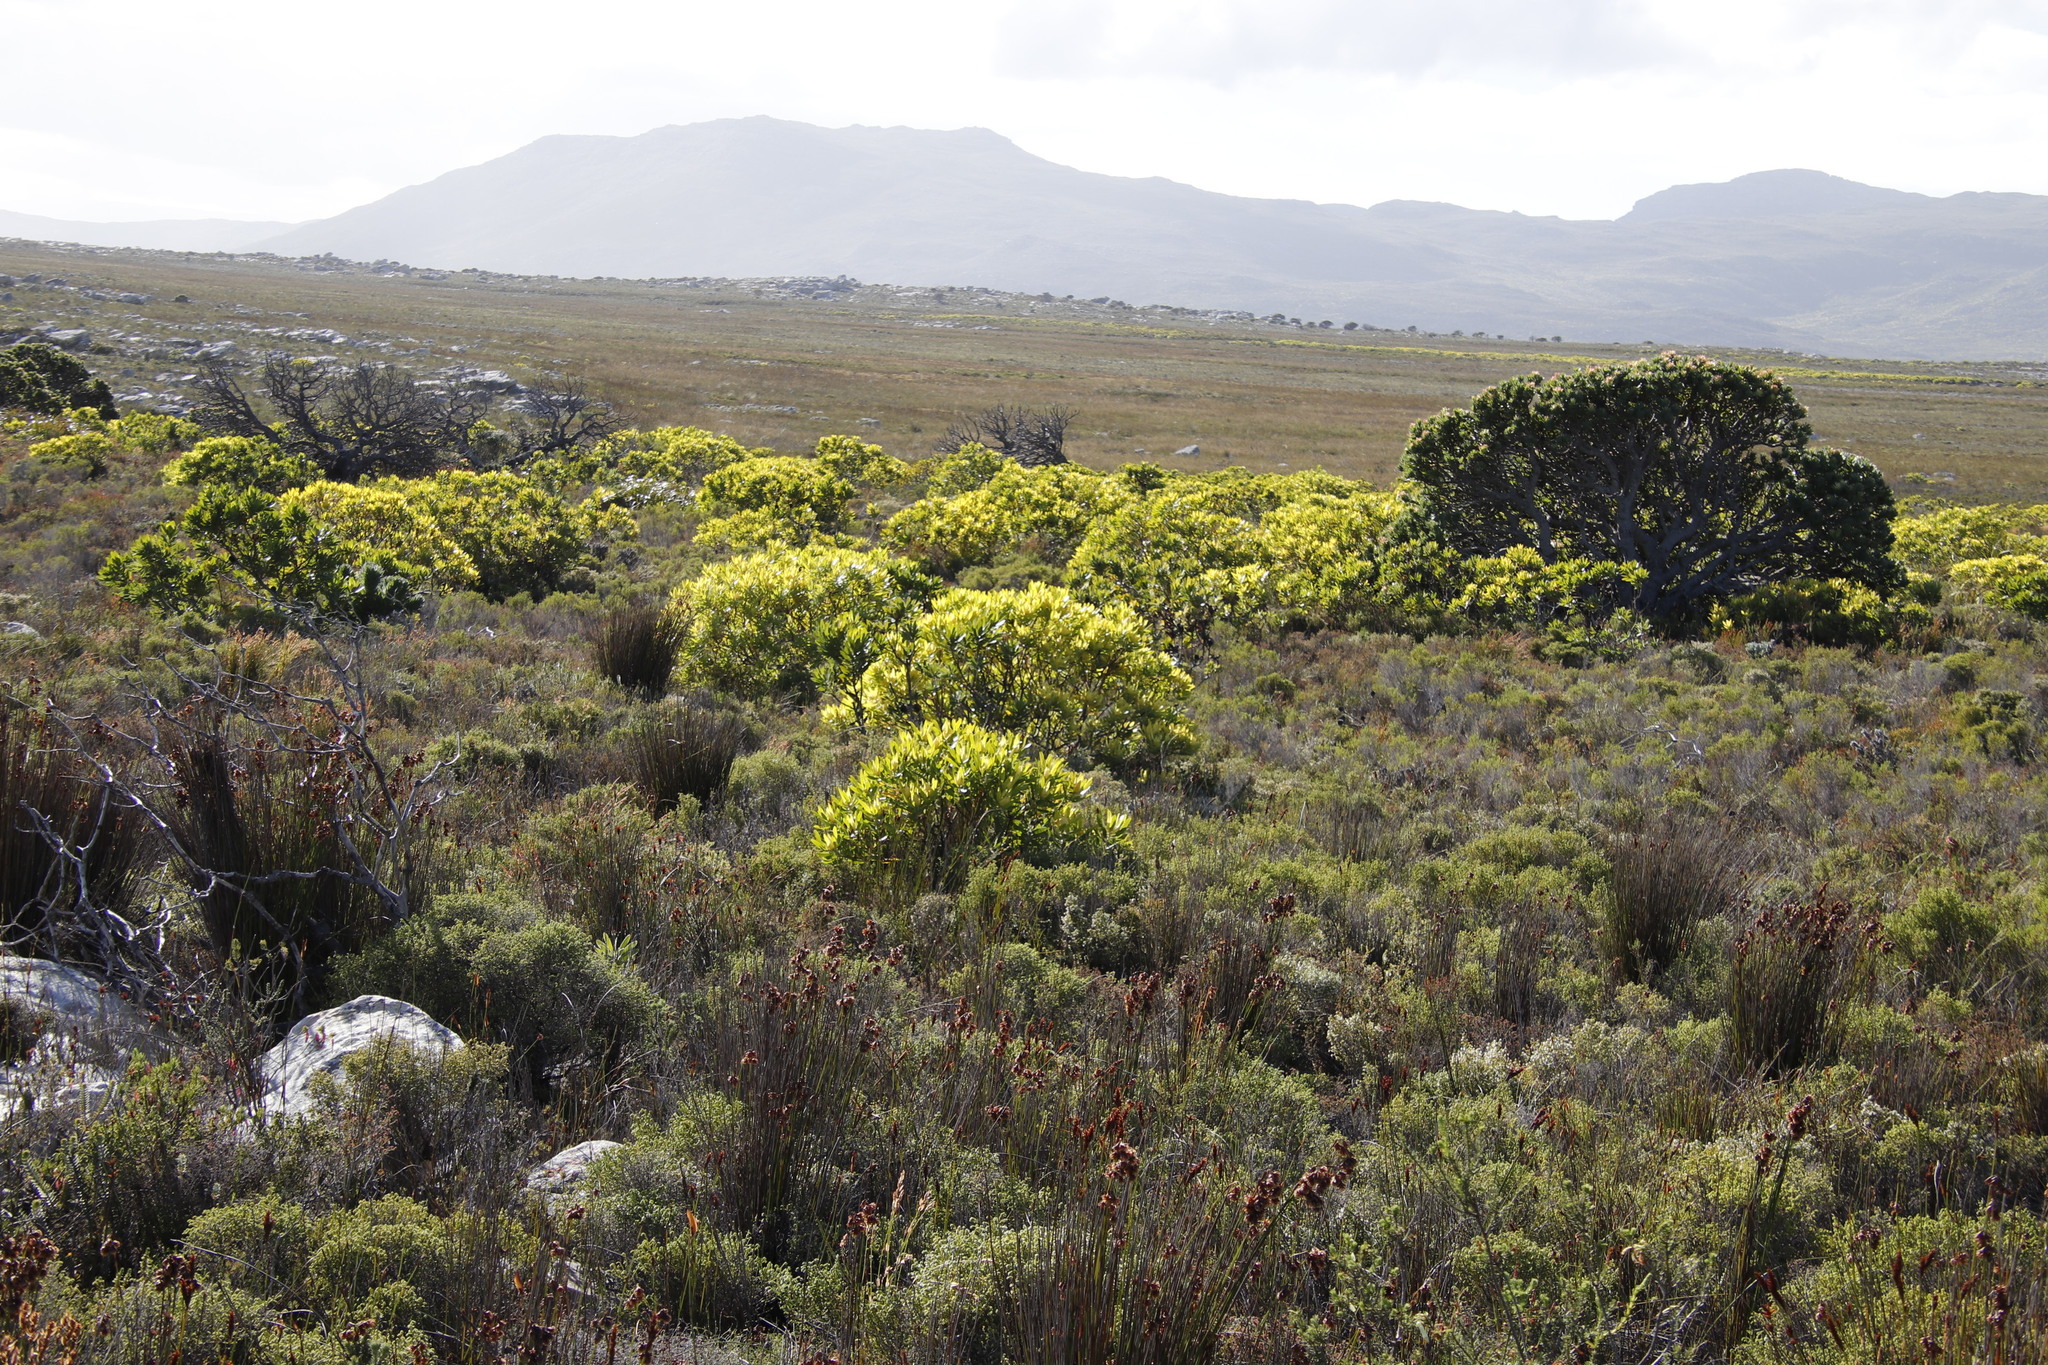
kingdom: Plantae
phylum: Tracheophyta
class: Magnoliopsida
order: Proteales
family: Proteaceae
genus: Leucadendron
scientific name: Leucadendron laureolum
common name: Golden sunshinebush
